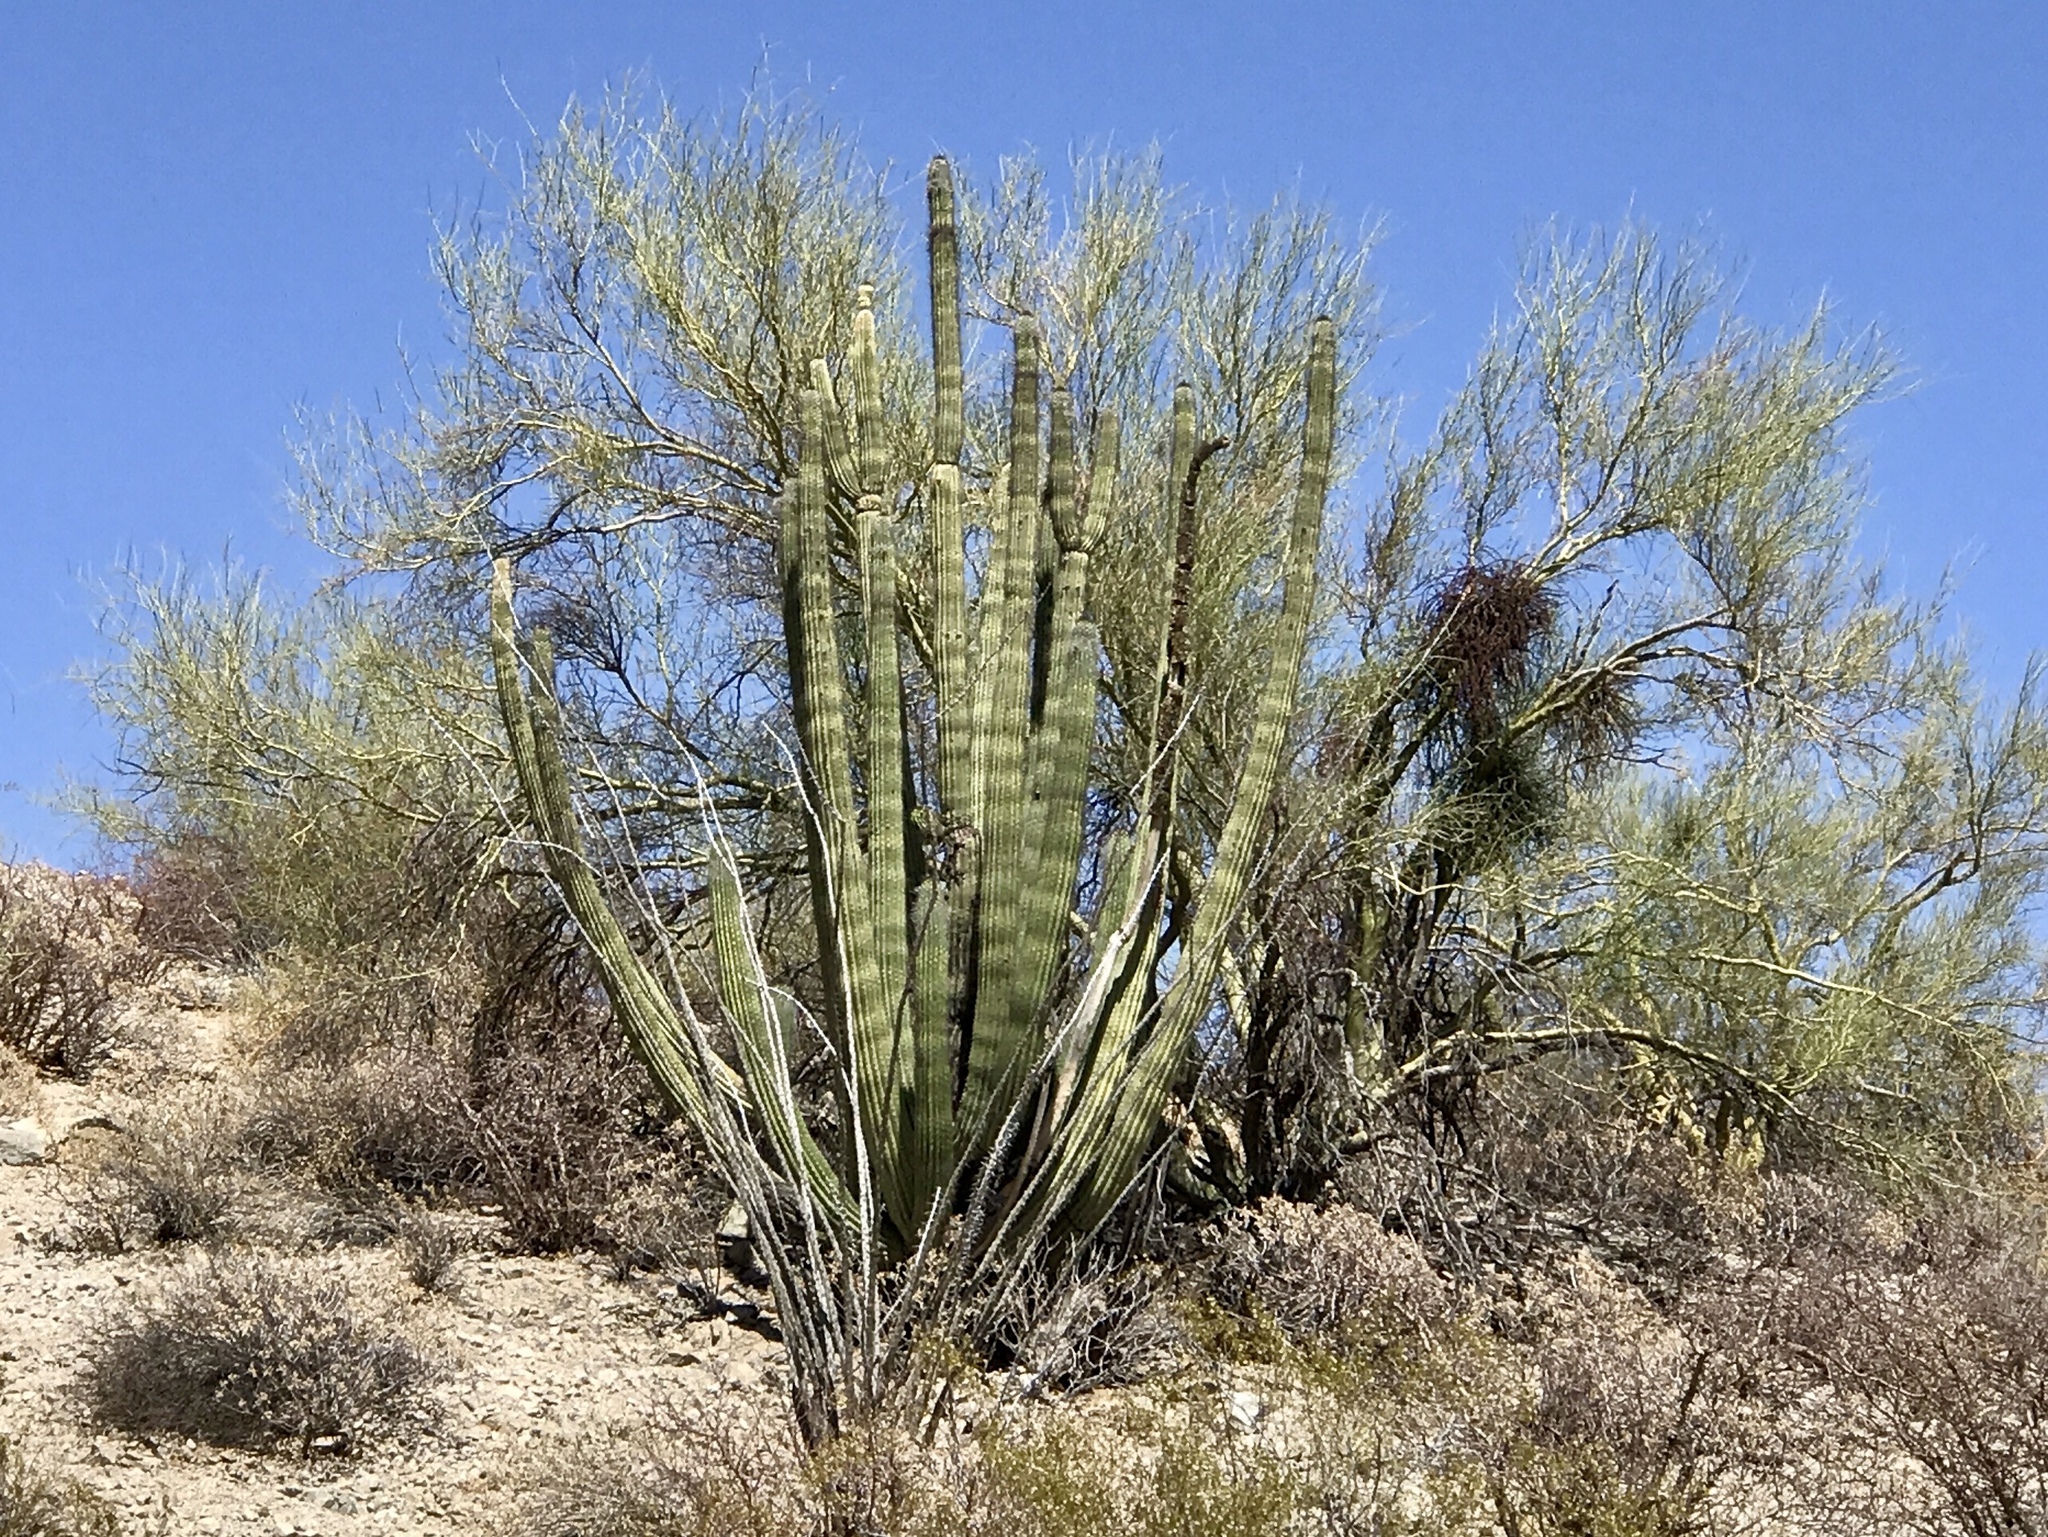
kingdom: Plantae
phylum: Tracheophyta
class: Magnoliopsida
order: Caryophyllales
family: Cactaceae
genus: Stenocereus
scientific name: Stenocereus thurberi
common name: Organ pipe cactus
